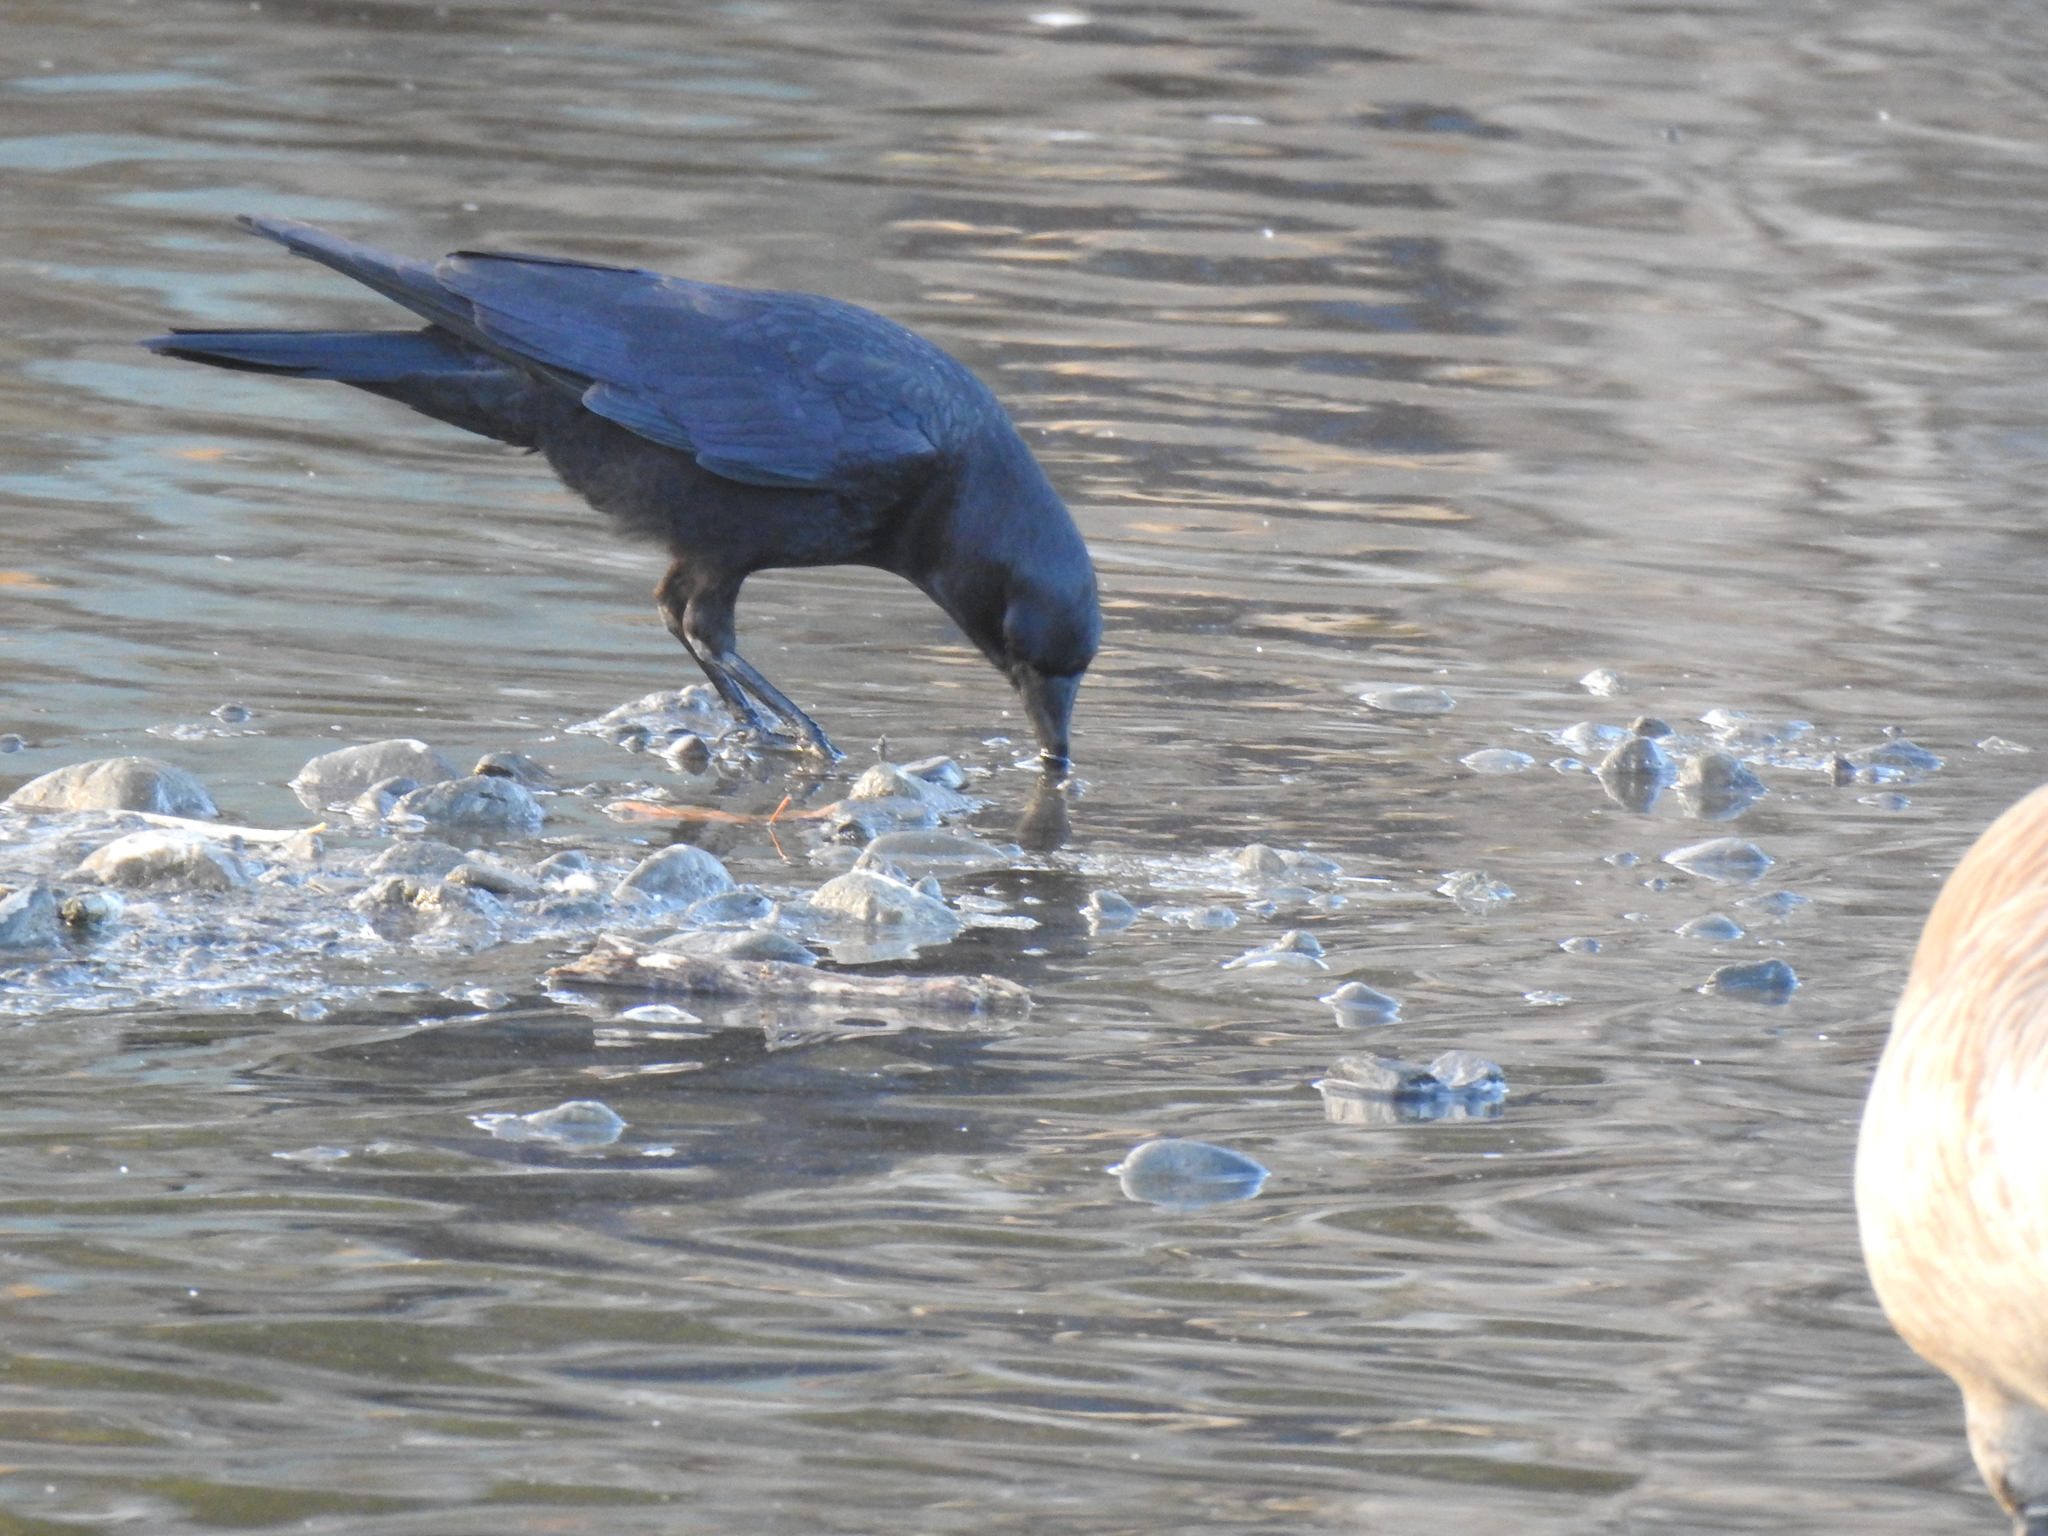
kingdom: Animalia
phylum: Chordata
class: Aves
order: Passeriformes
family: Corvidae
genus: Corvus
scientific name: Corvus brachyrhynchos
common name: American crow
